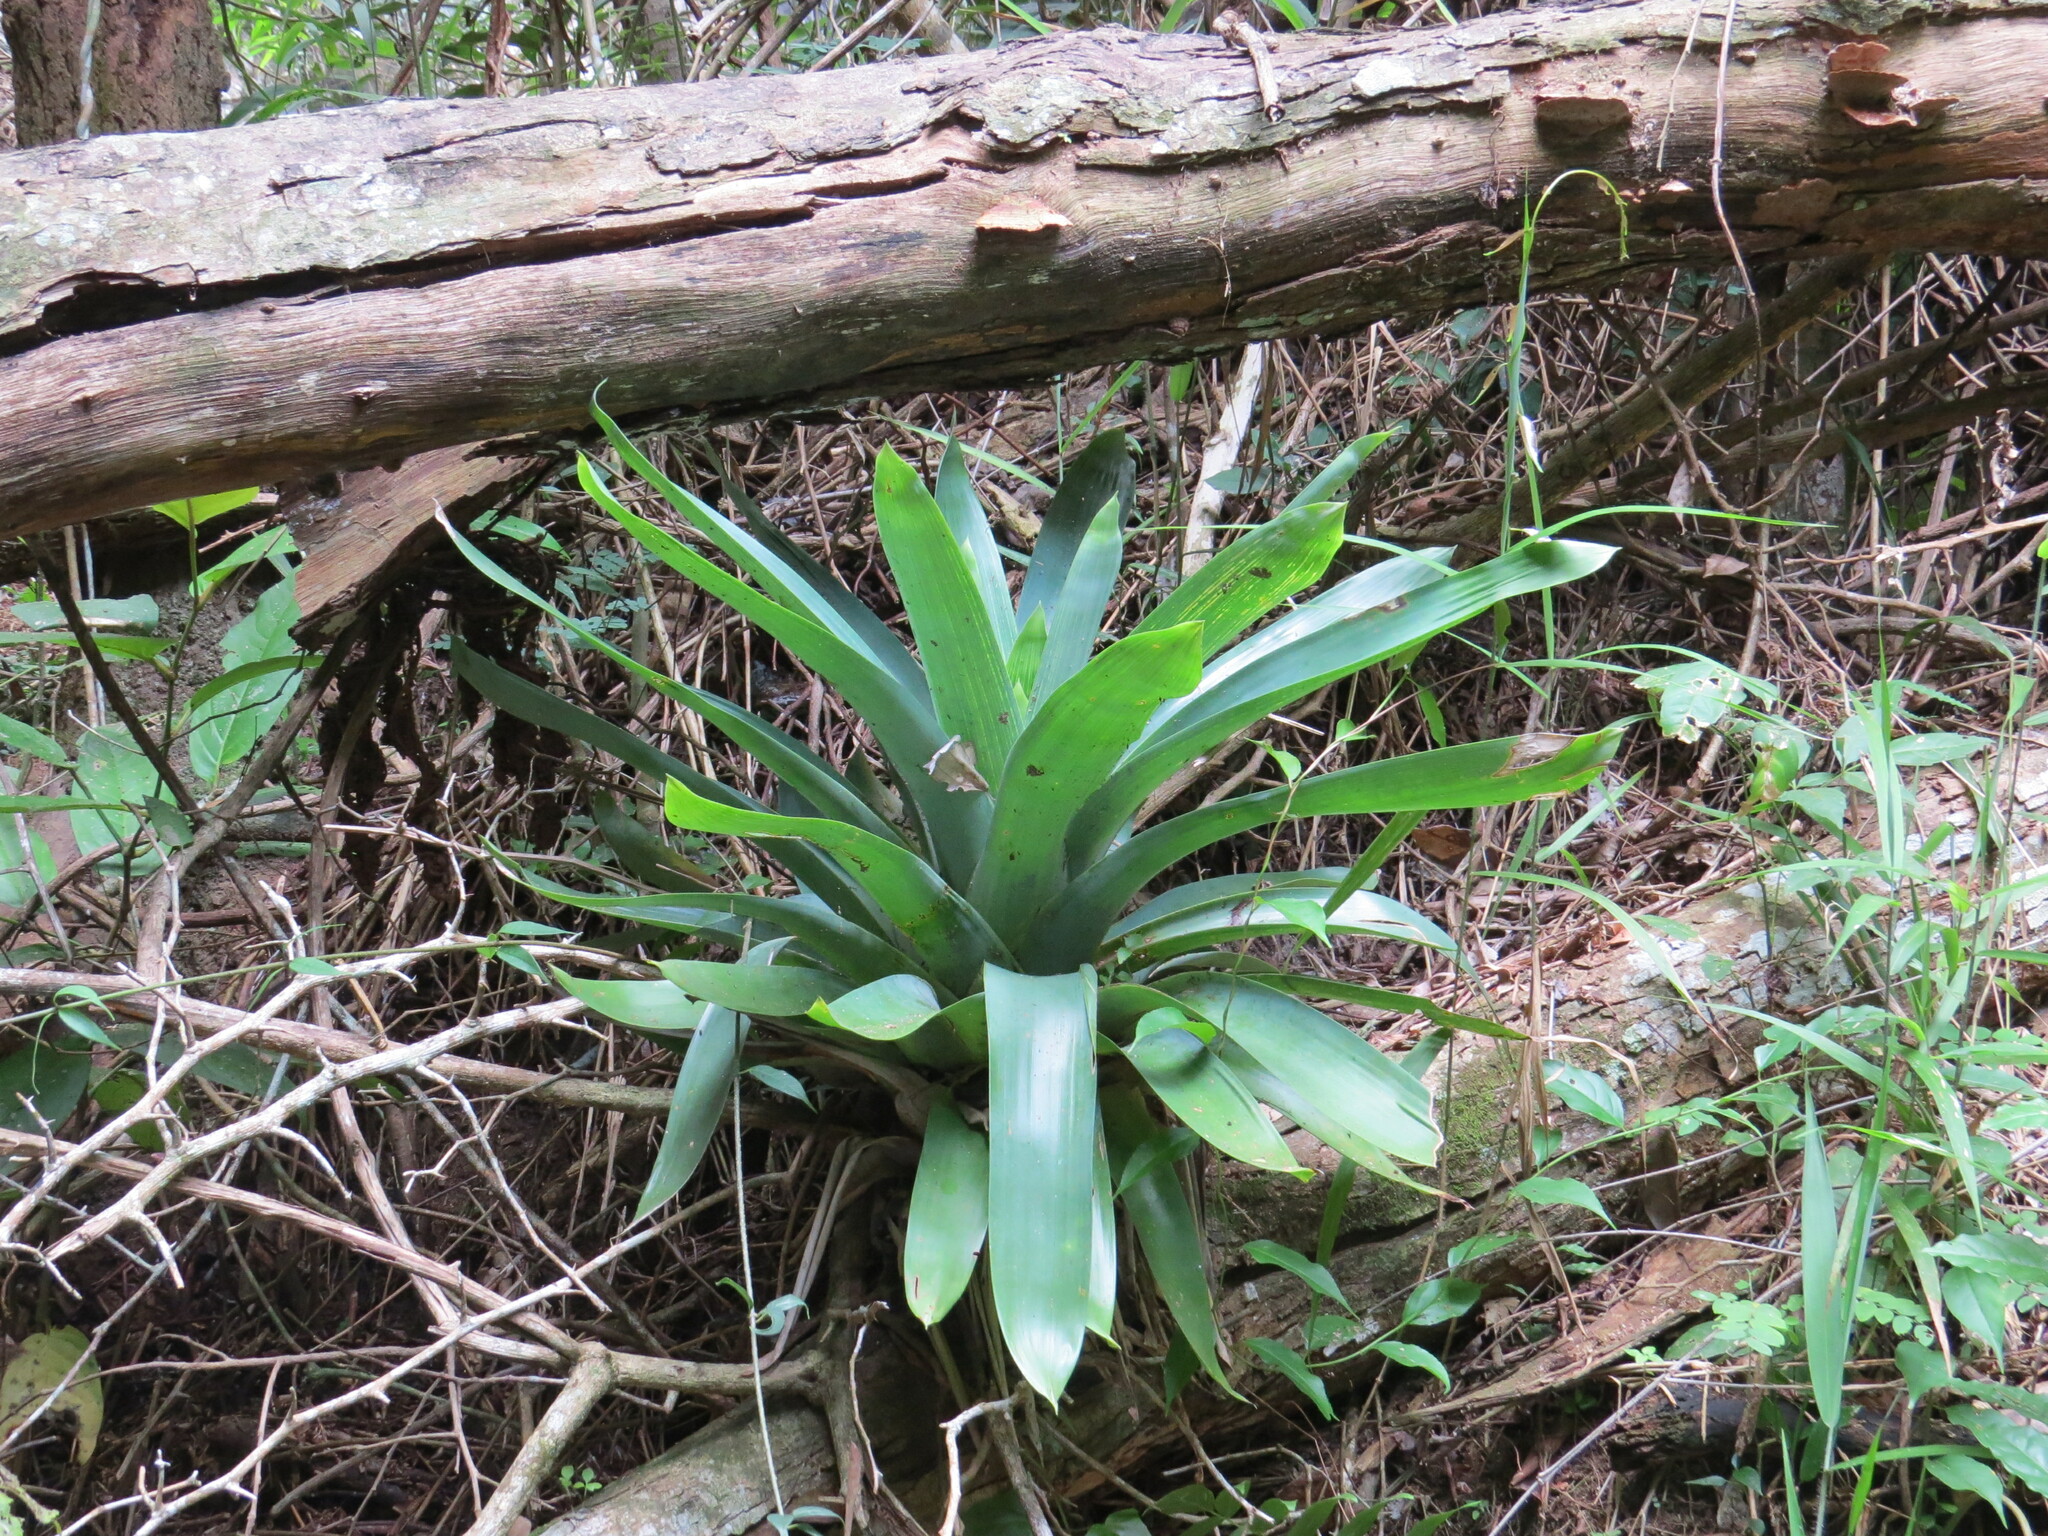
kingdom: Plantae
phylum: Tracheophyta
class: Liliopsida
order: Poales
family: Bromeliaceae
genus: Vriesea
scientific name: Vriesea gigantea
